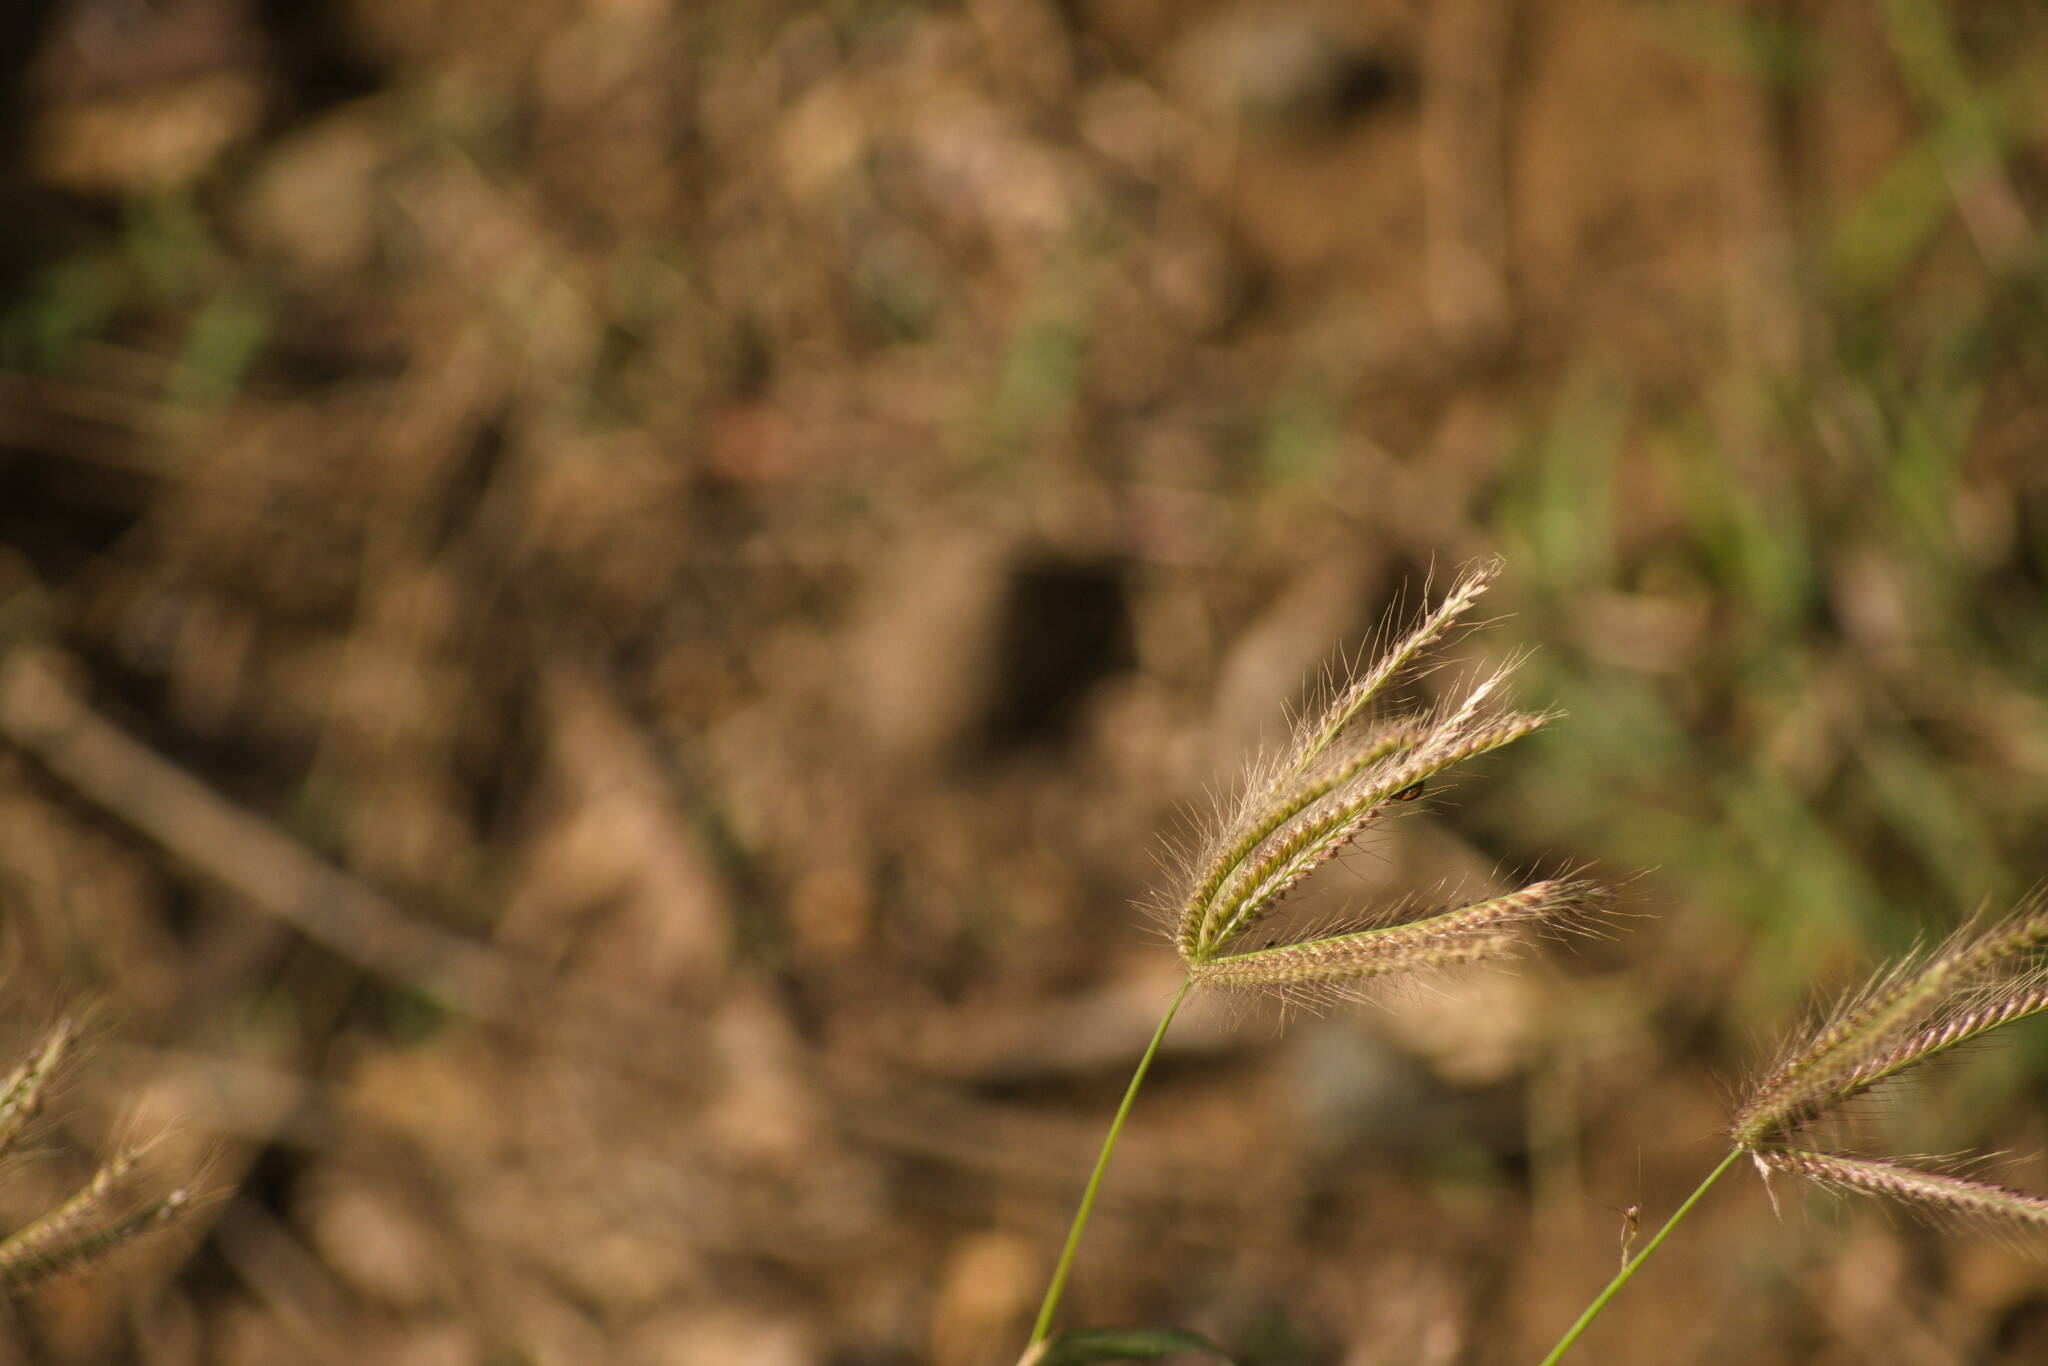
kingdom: Plantae
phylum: Tracheophyta
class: Liliopsida
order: Poales
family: Poaceae
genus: Chloris
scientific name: Chloris barbata
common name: Swollen fingergrass
